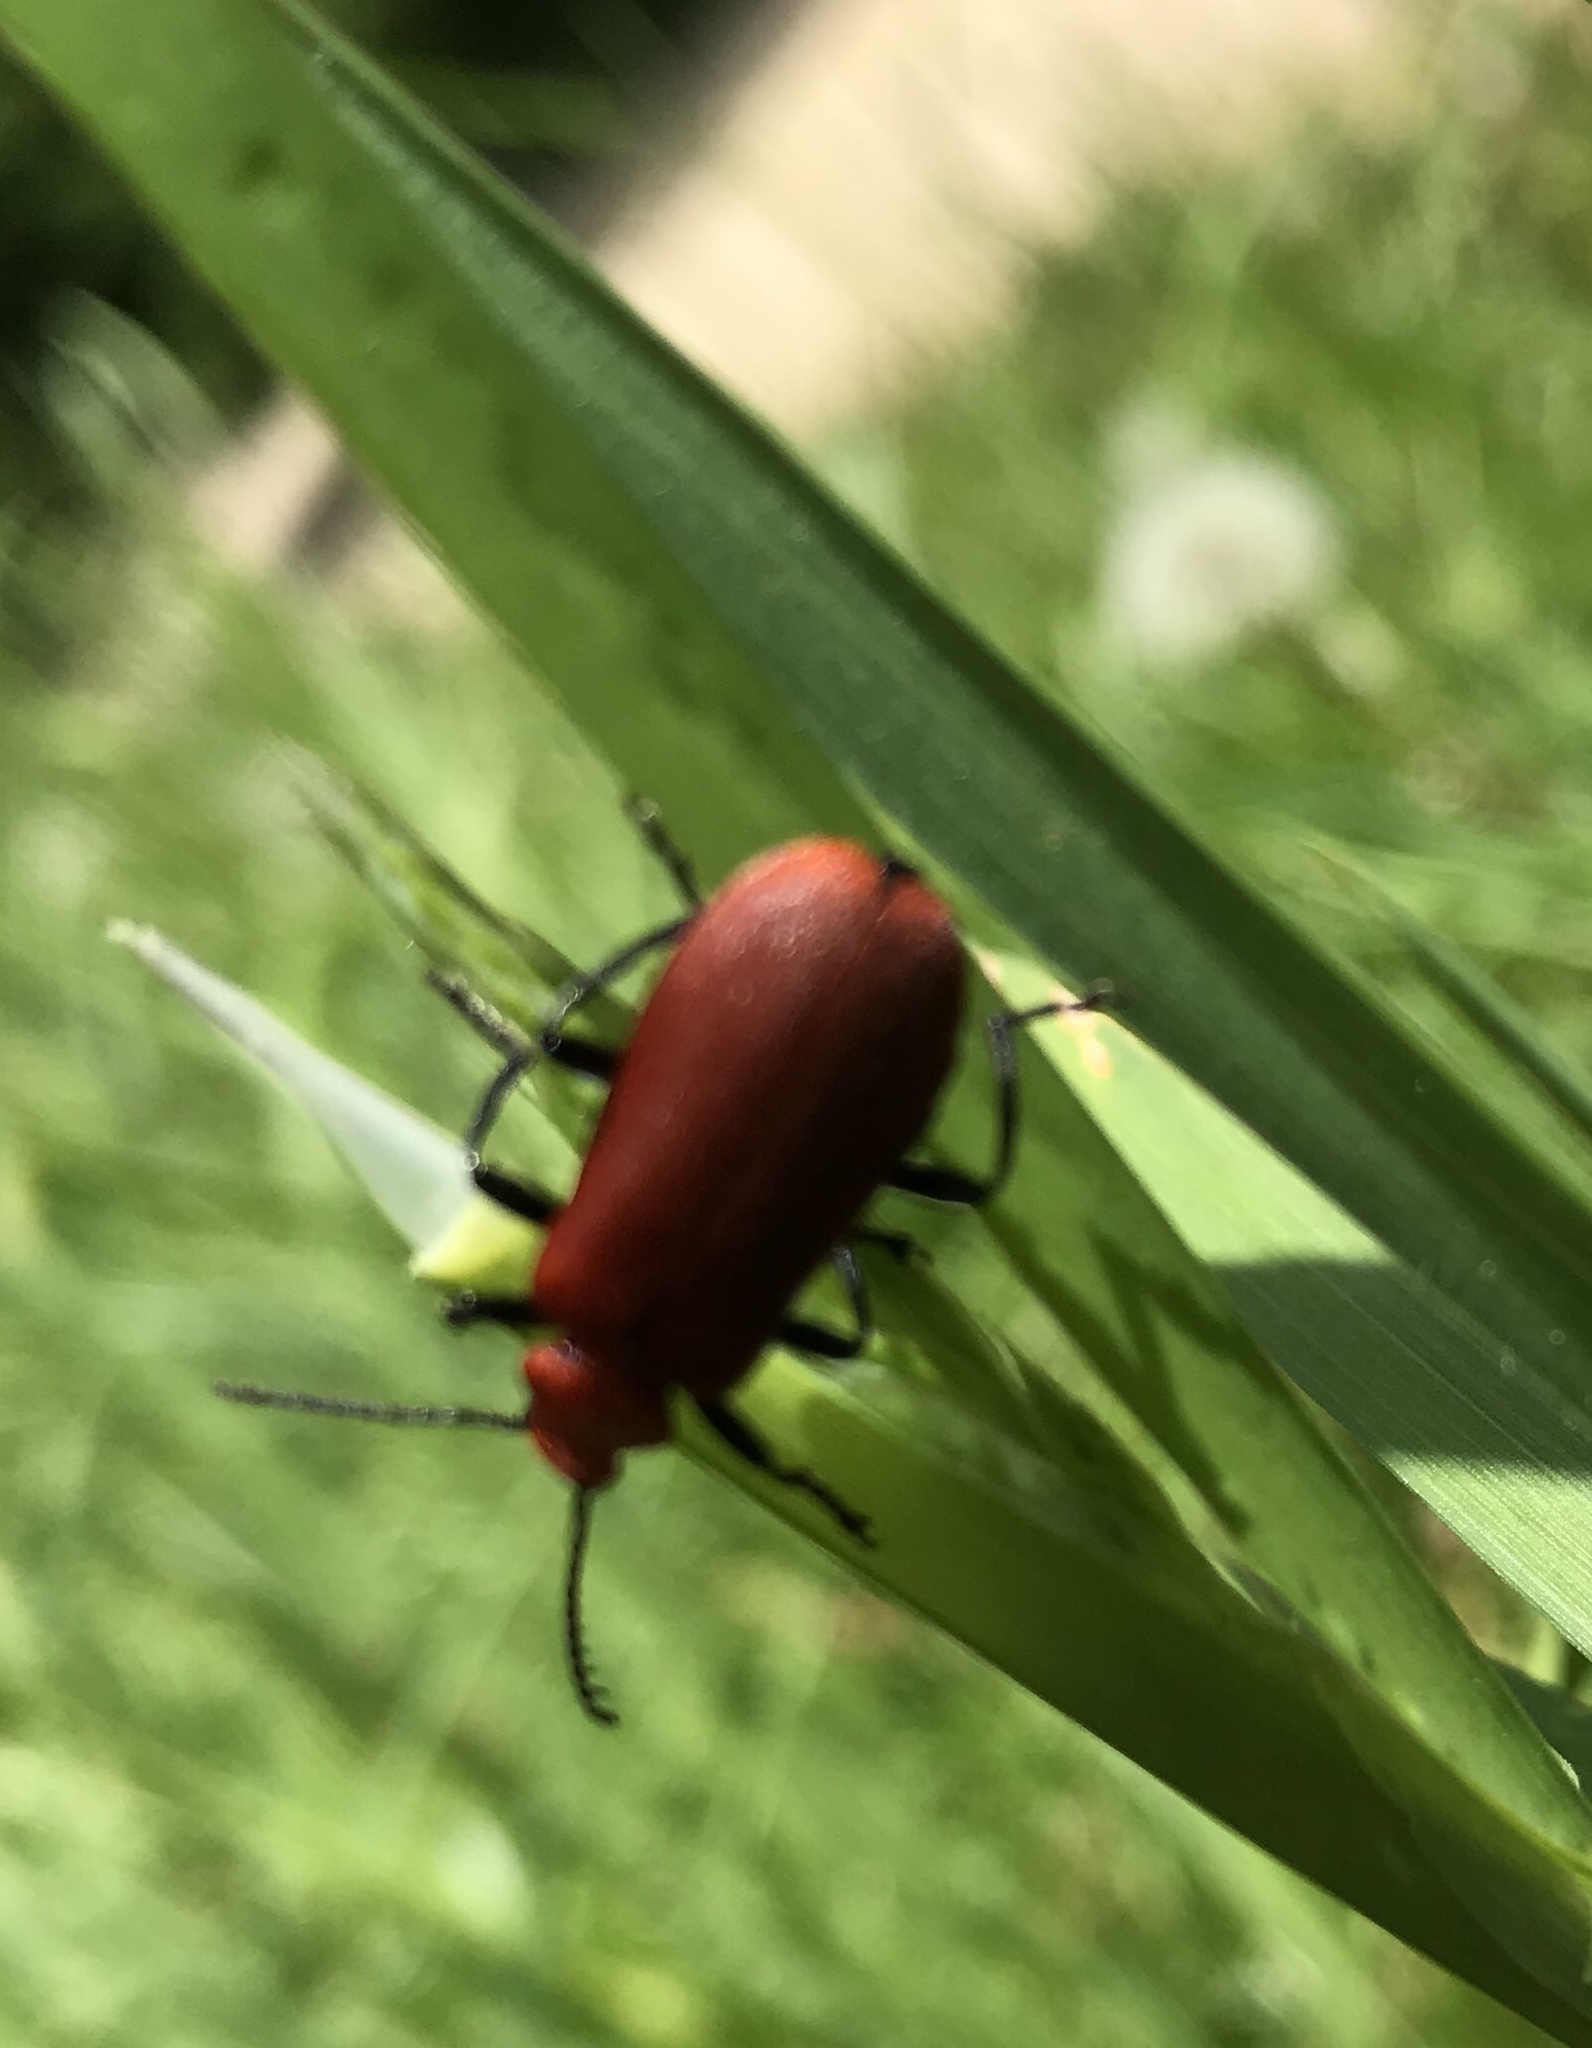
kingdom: Animalia
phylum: Arthropoda
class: Insecta
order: Coleoptera
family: Pyrochroidae
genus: Pyrochroa
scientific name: Pyrochroa serraticornis
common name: Red-headed cardinal beetle
